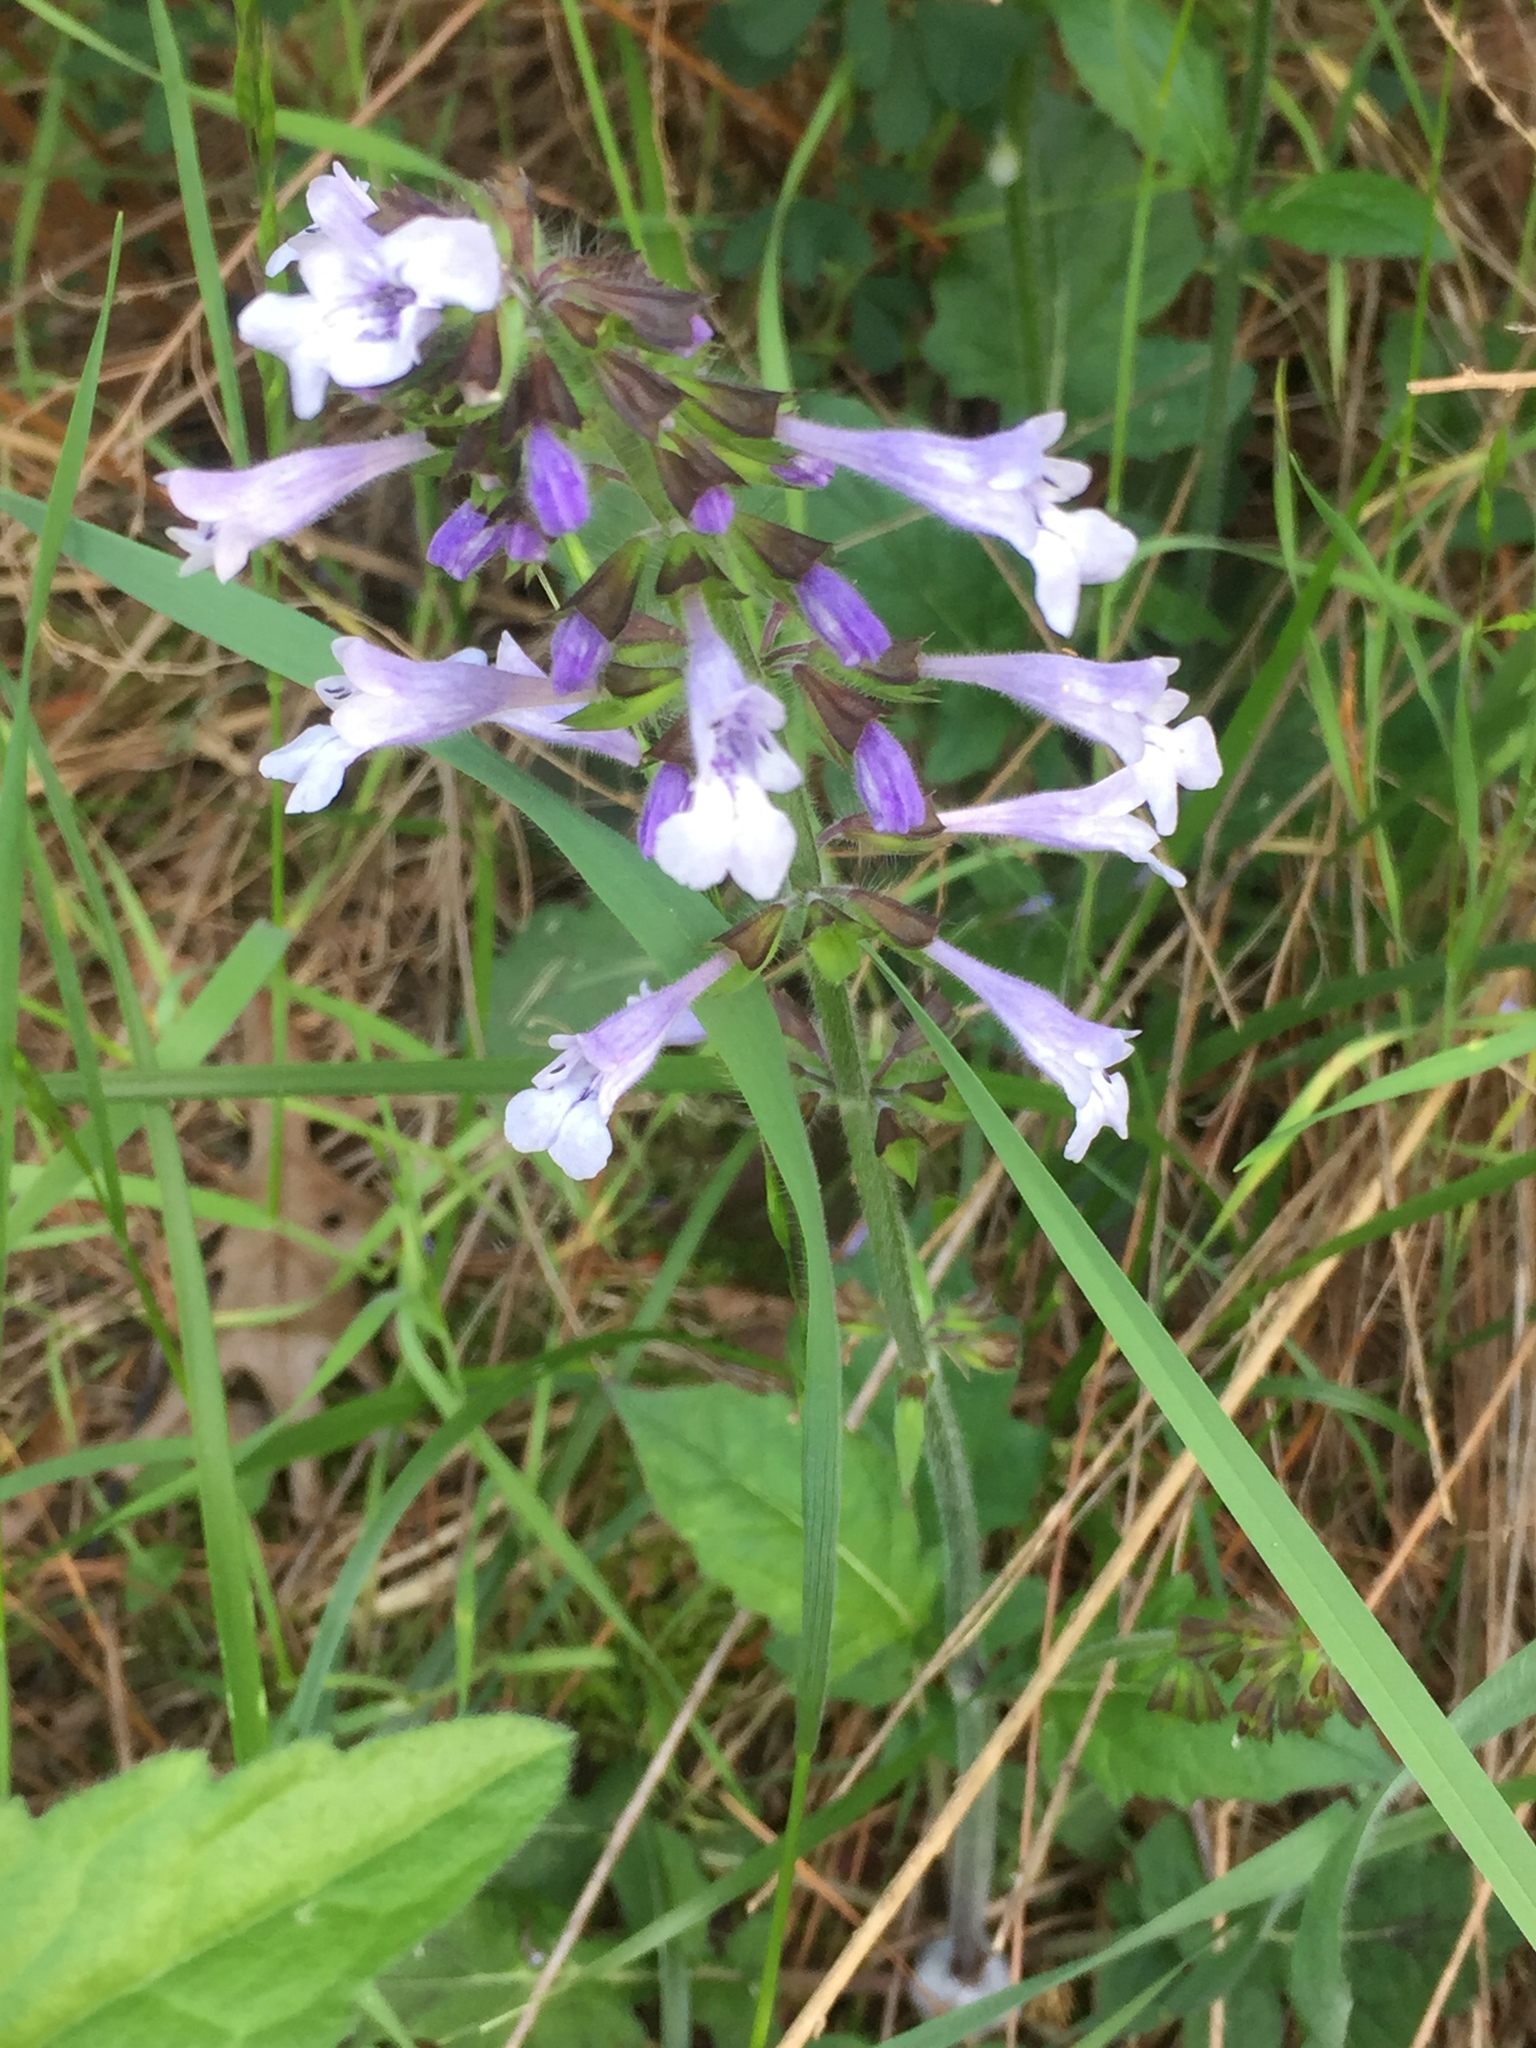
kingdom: Plantae
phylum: Tracheophyta
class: Magnoliopsida
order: Lamiales
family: Lamiaceae
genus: Salvia
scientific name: Salvia lyrata
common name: Cancerweed
